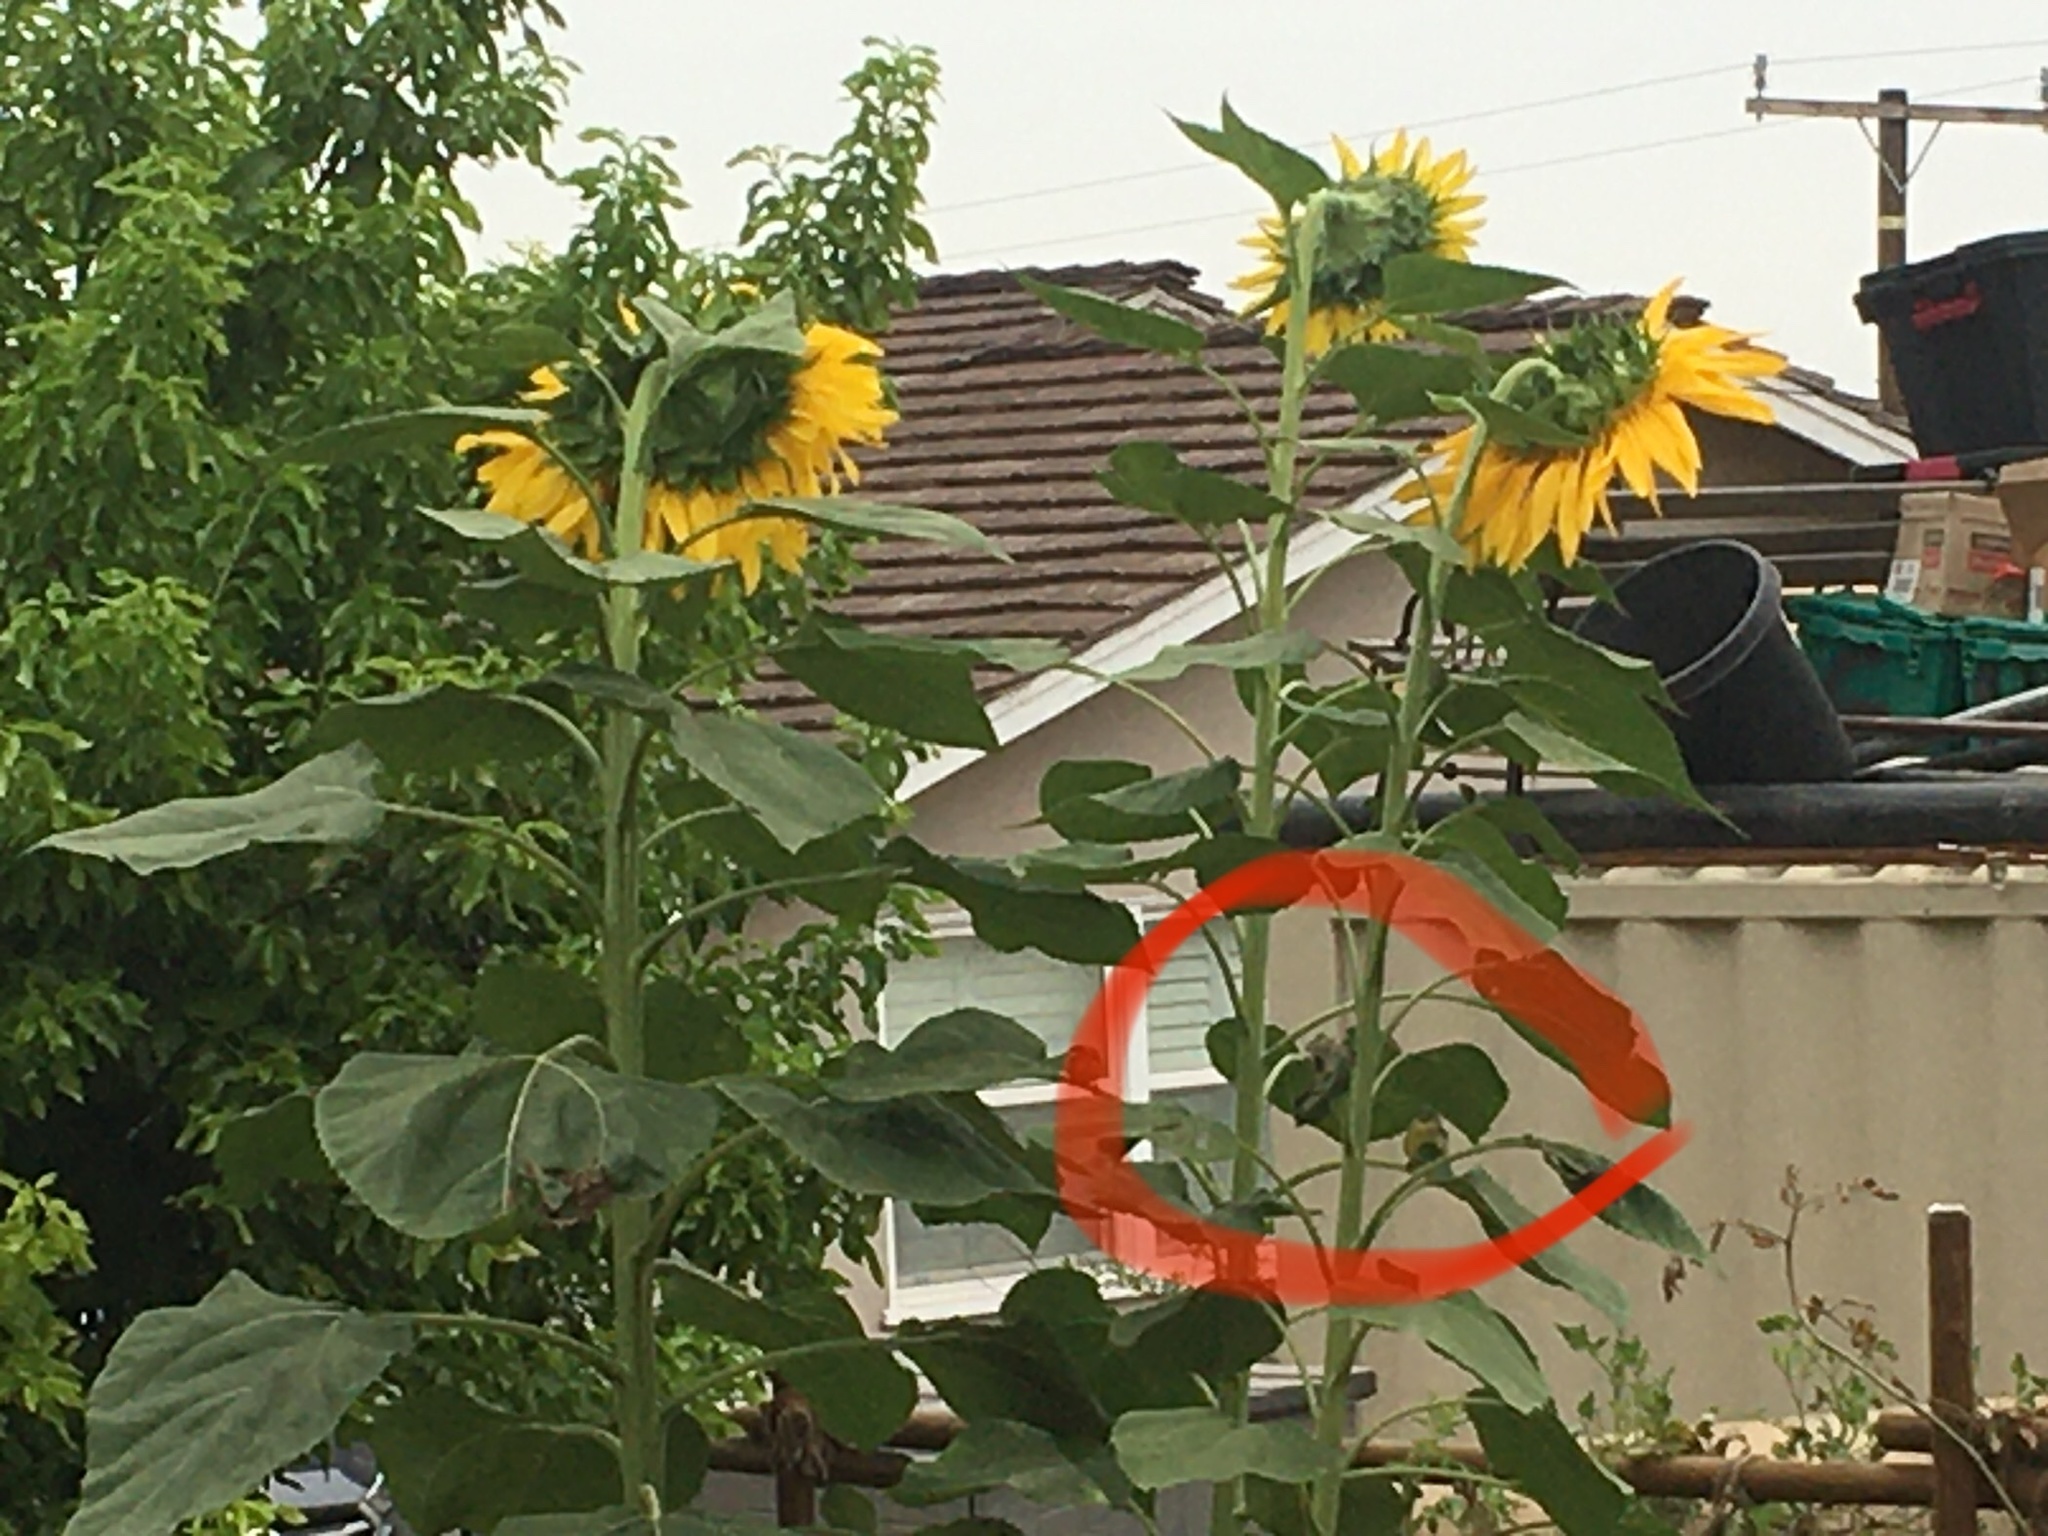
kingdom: Animalia
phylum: Chordata
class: Aves
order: Passeriformes
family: Fringillidae
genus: Spinus
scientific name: Spinus psaltria
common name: Lesser goldfinch
